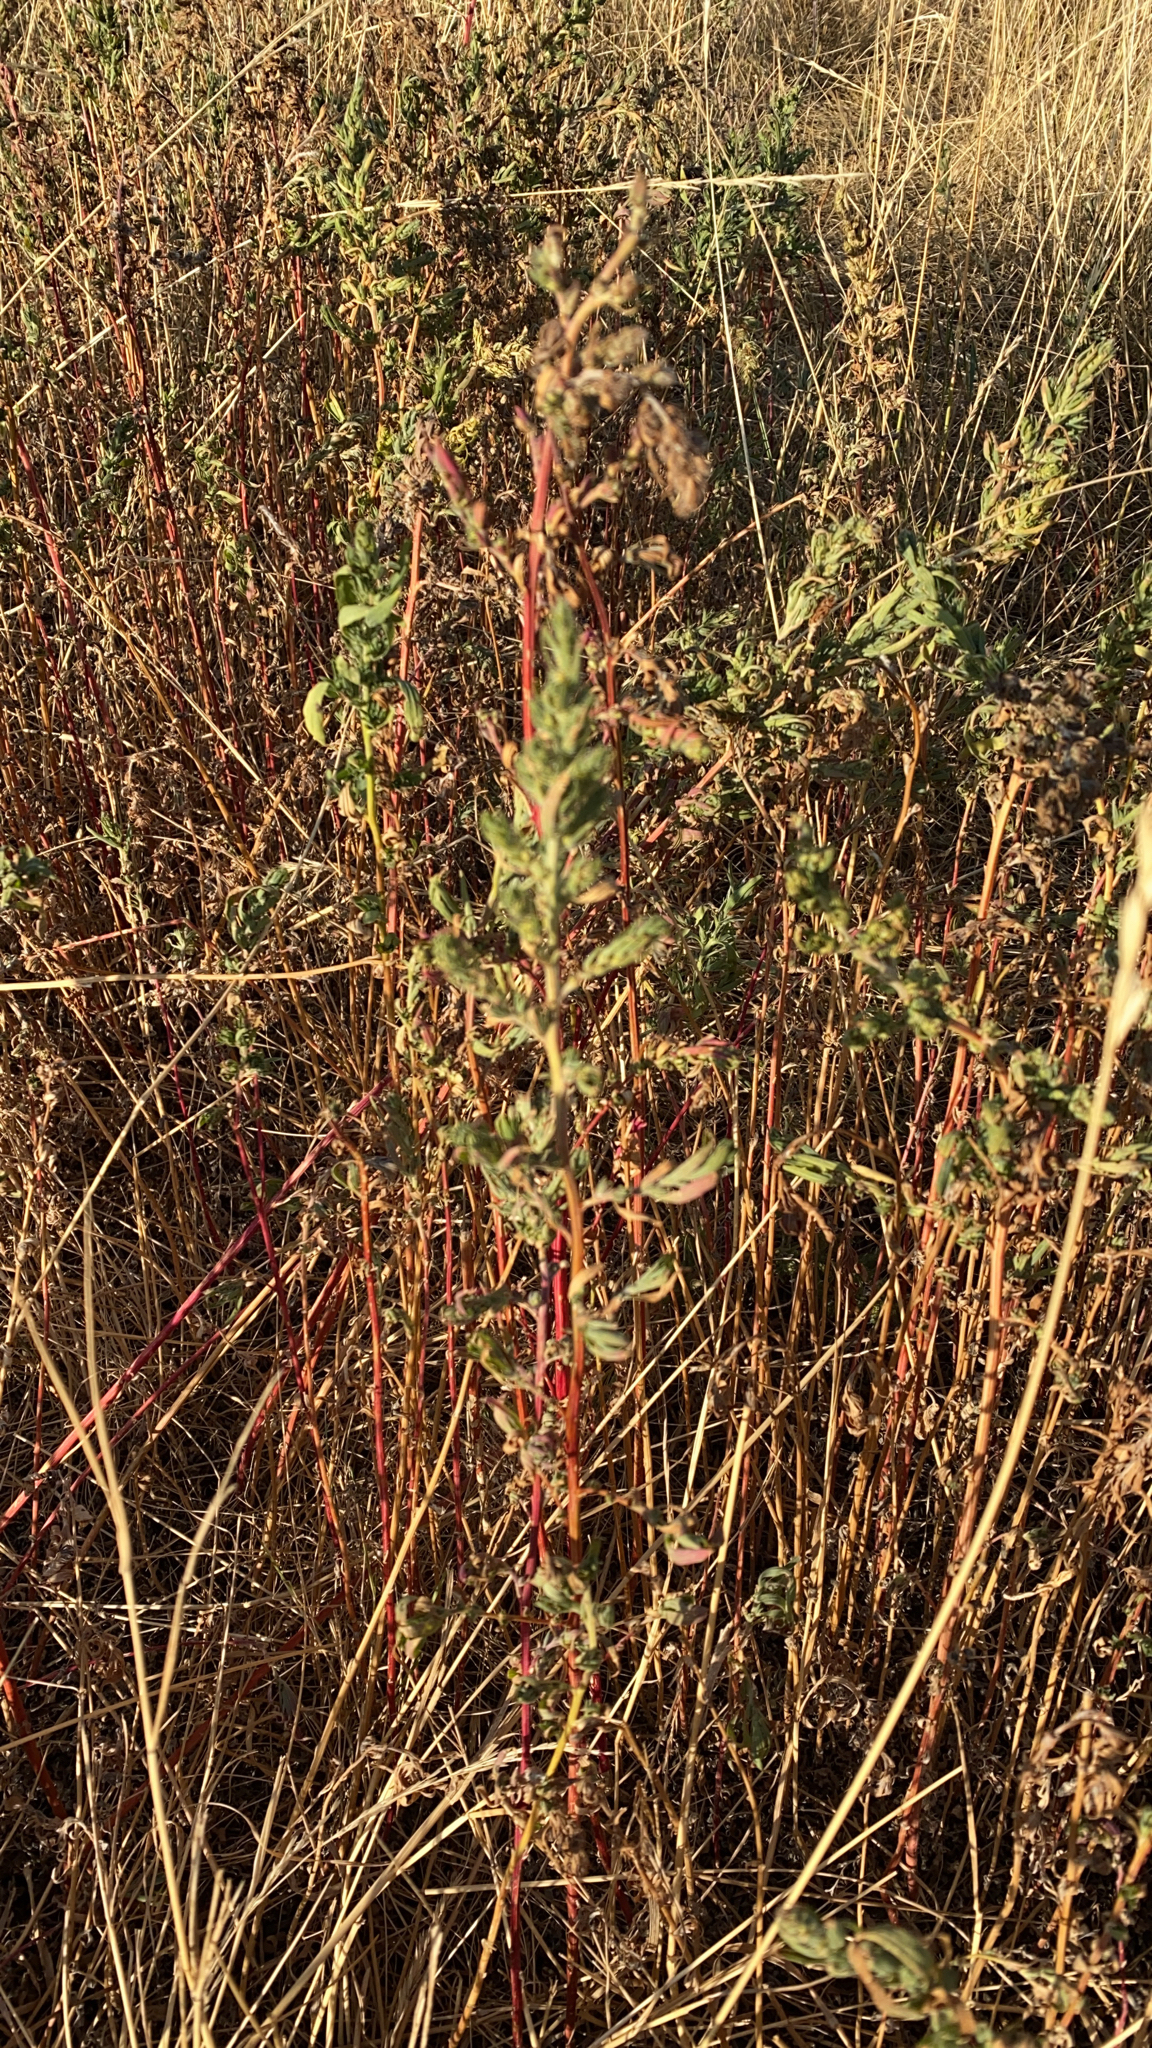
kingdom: Plantae
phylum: Tracheophyta
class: Magnoliopsida
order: Caryophyllales
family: Amaranthaceae
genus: Bassia
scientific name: Bassia scoparia
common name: Belvedere
